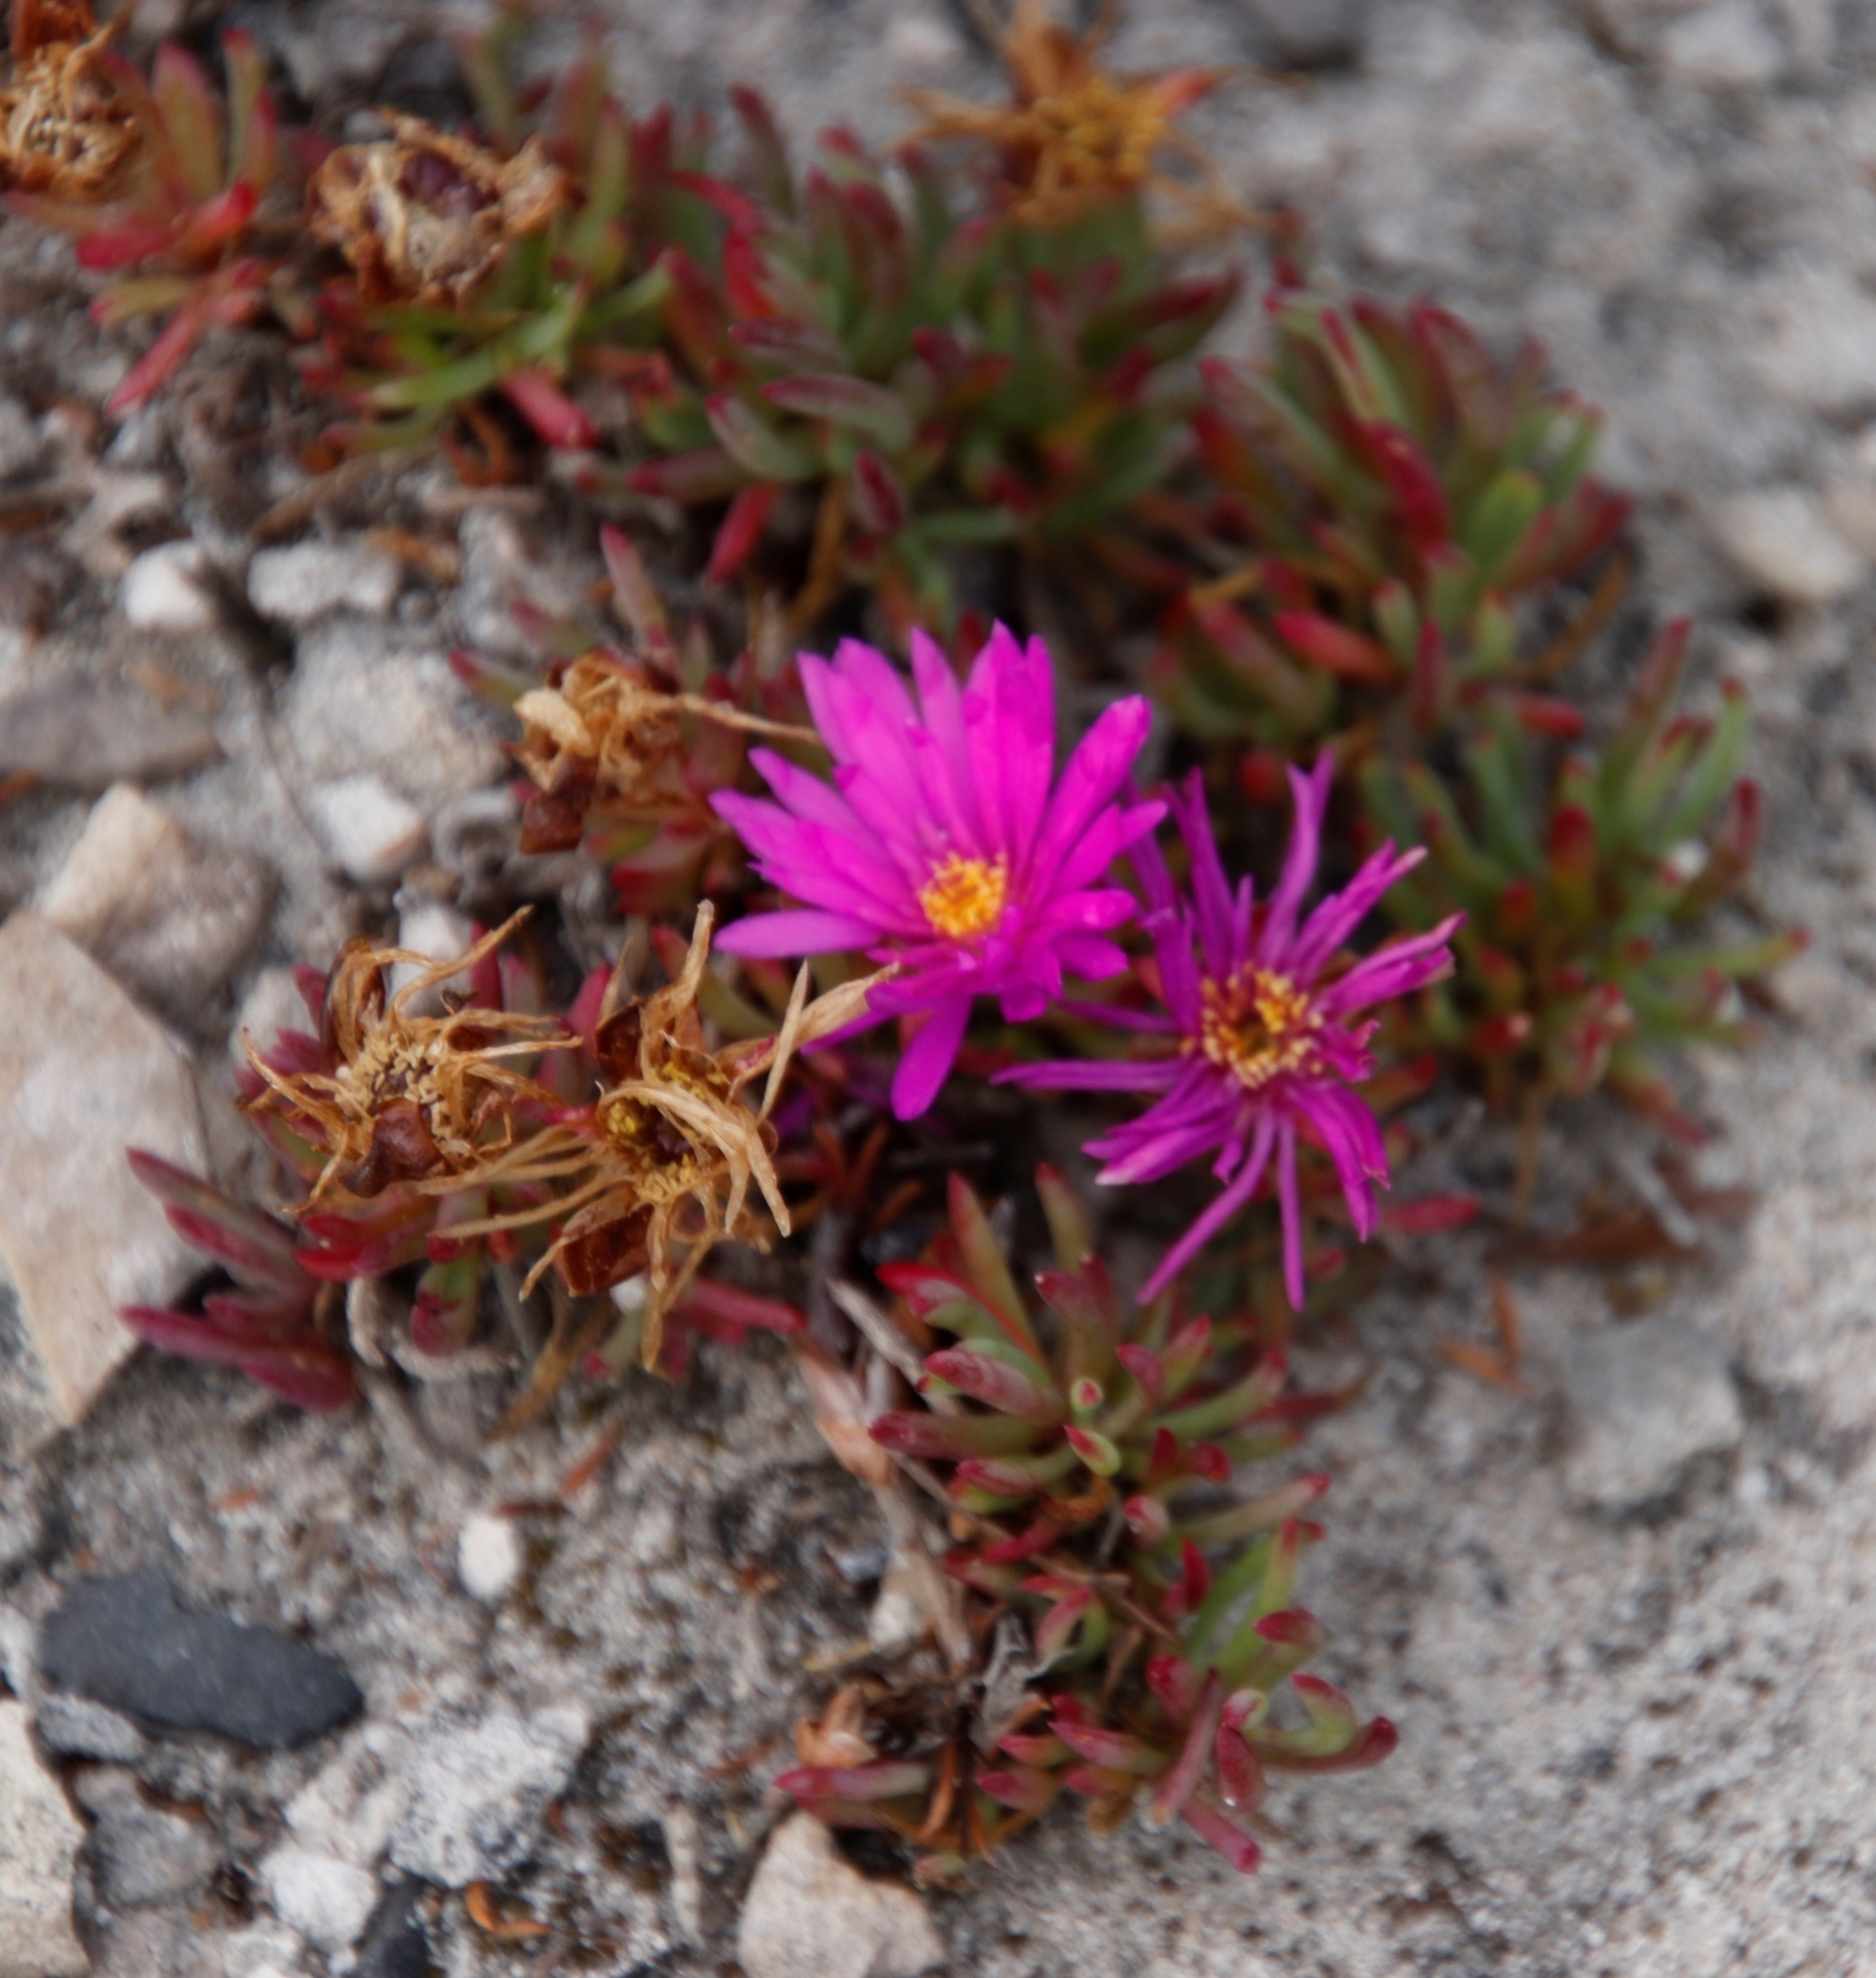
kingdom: Plantae
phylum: Tracheophyta
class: Magnoliopsida
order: Caryophyllales
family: Aizoaceae
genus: Lampranthus
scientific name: Lampranthus ceriseus
